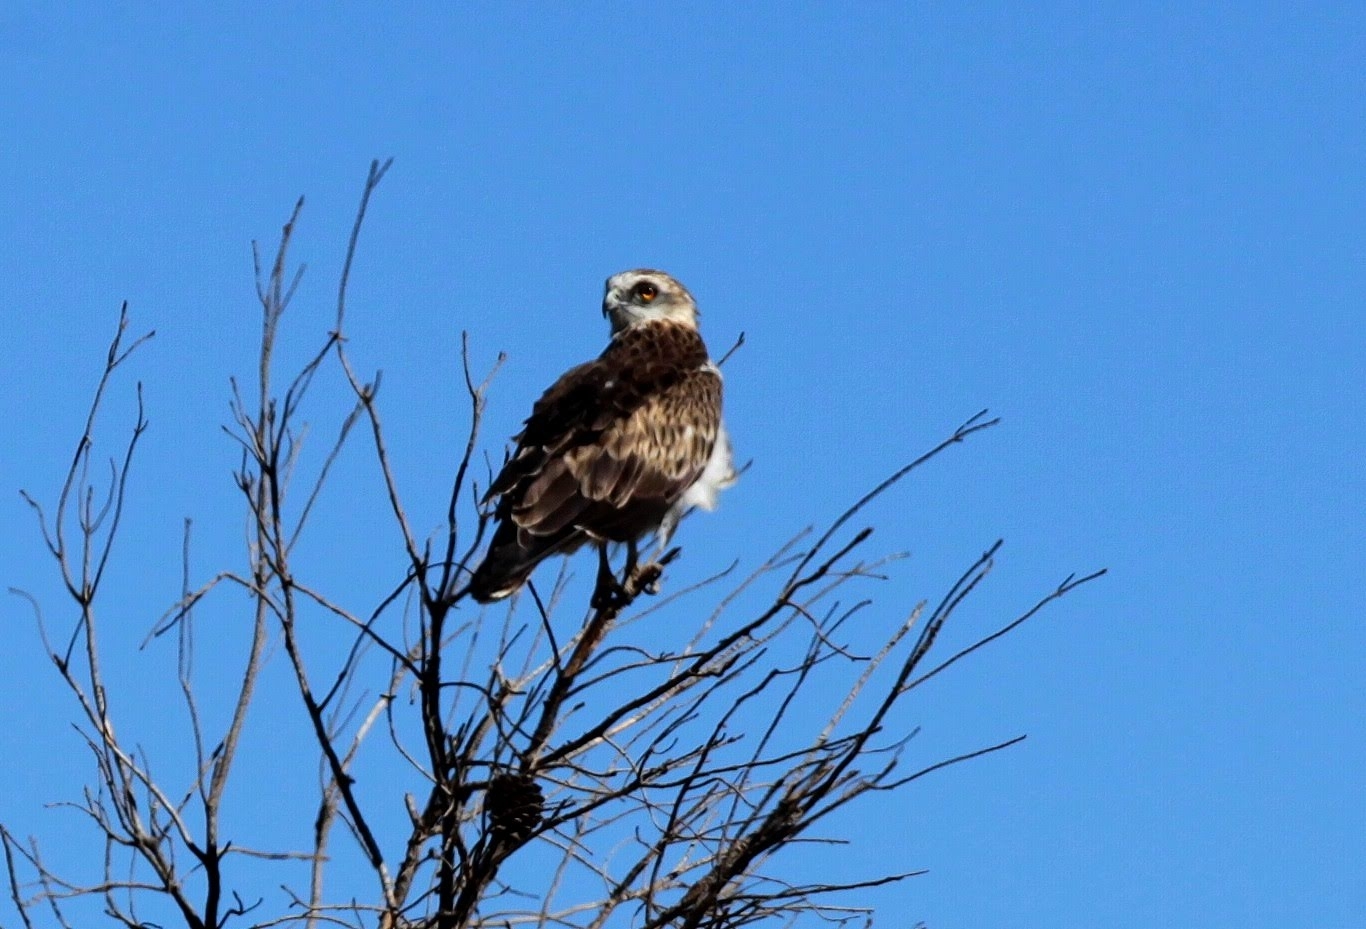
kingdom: Animalia
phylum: Chordata
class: Aves
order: Accipitriformes
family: Accipitridae
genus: Circaetus
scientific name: Circaetus gallicus
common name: Short-toed snake eagle
